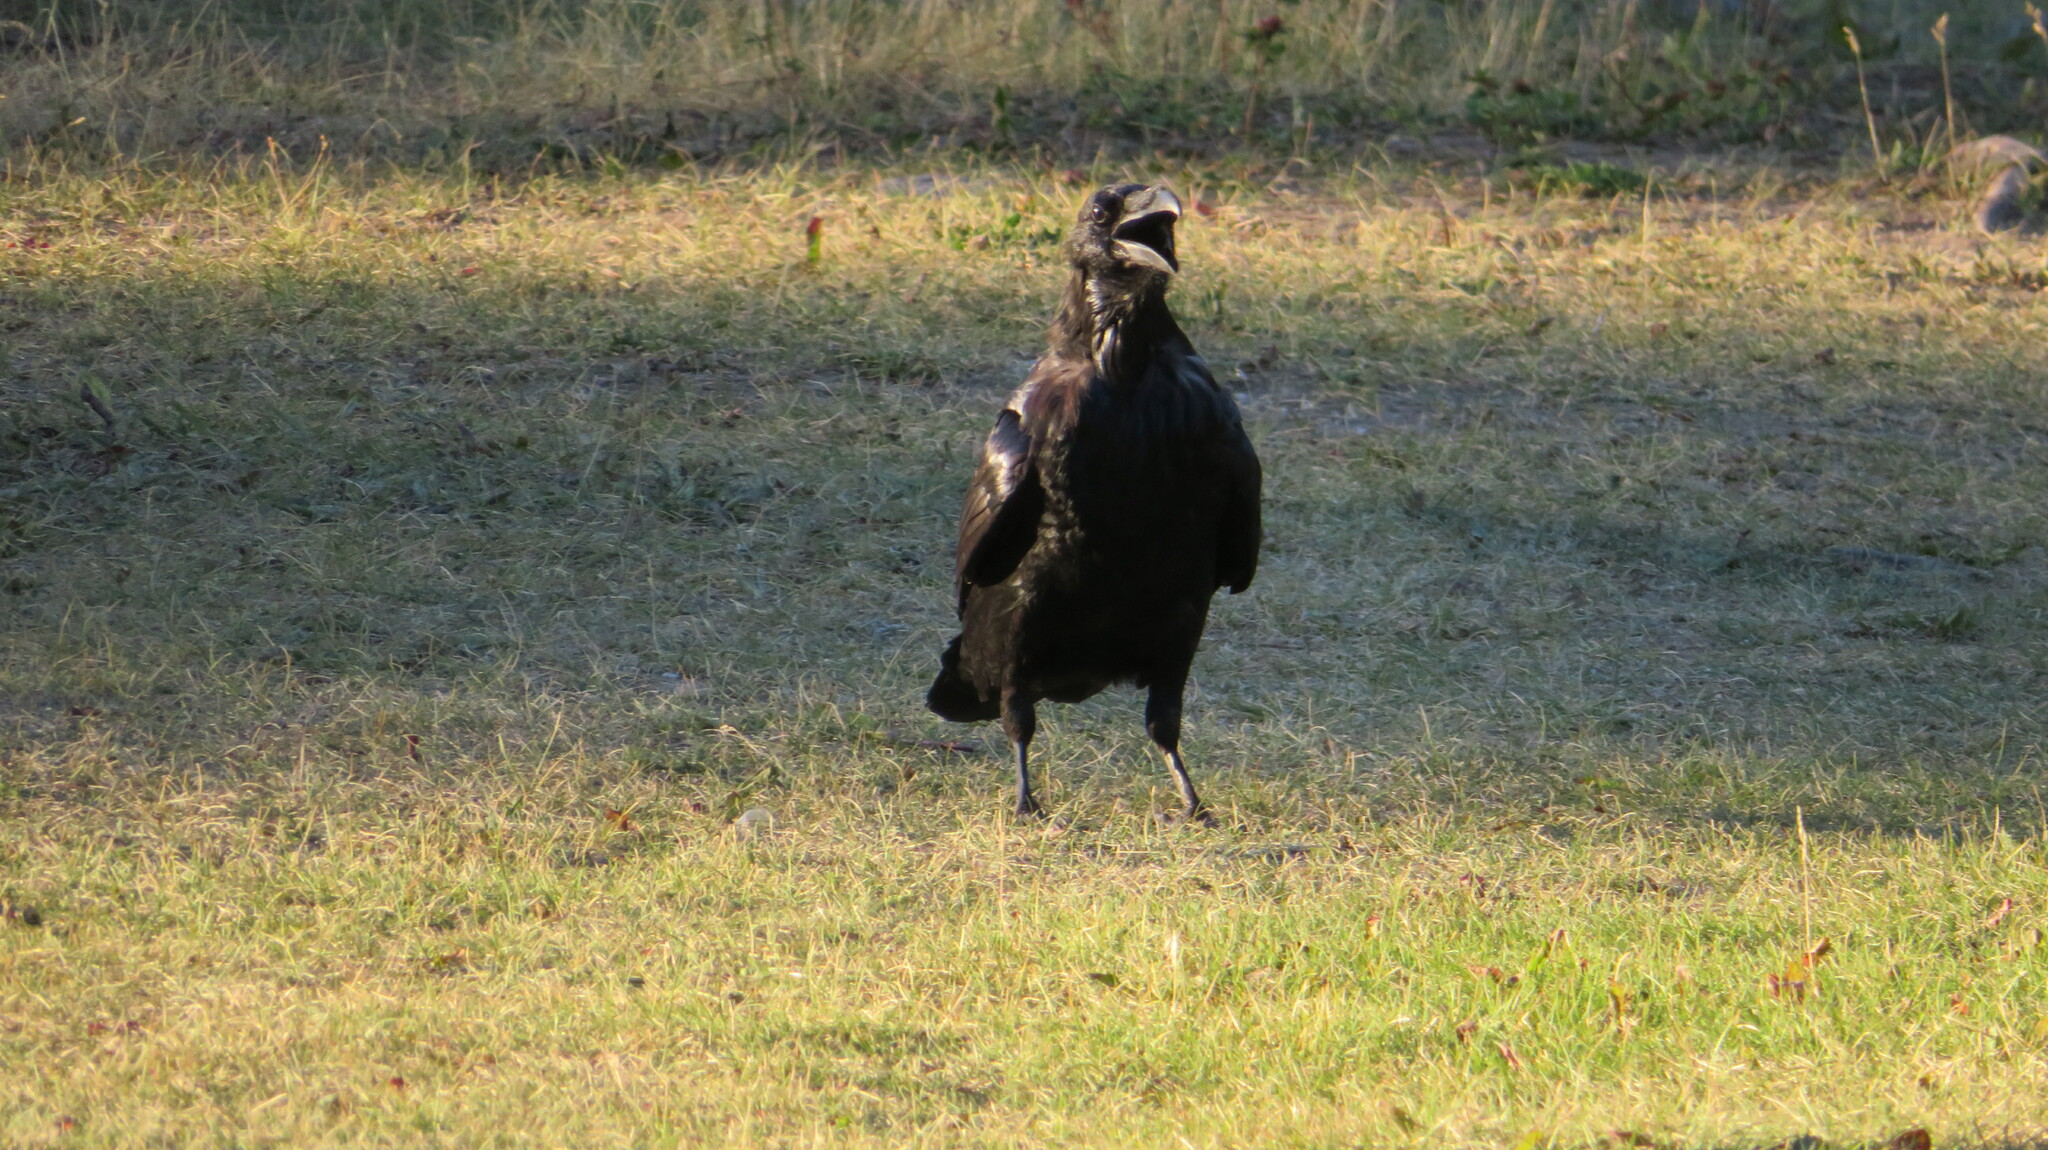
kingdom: Animalia
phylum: Chordata
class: Aves
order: Passeriformes
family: Corvidae
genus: Corvus
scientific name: Corvus corax
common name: Common raven
